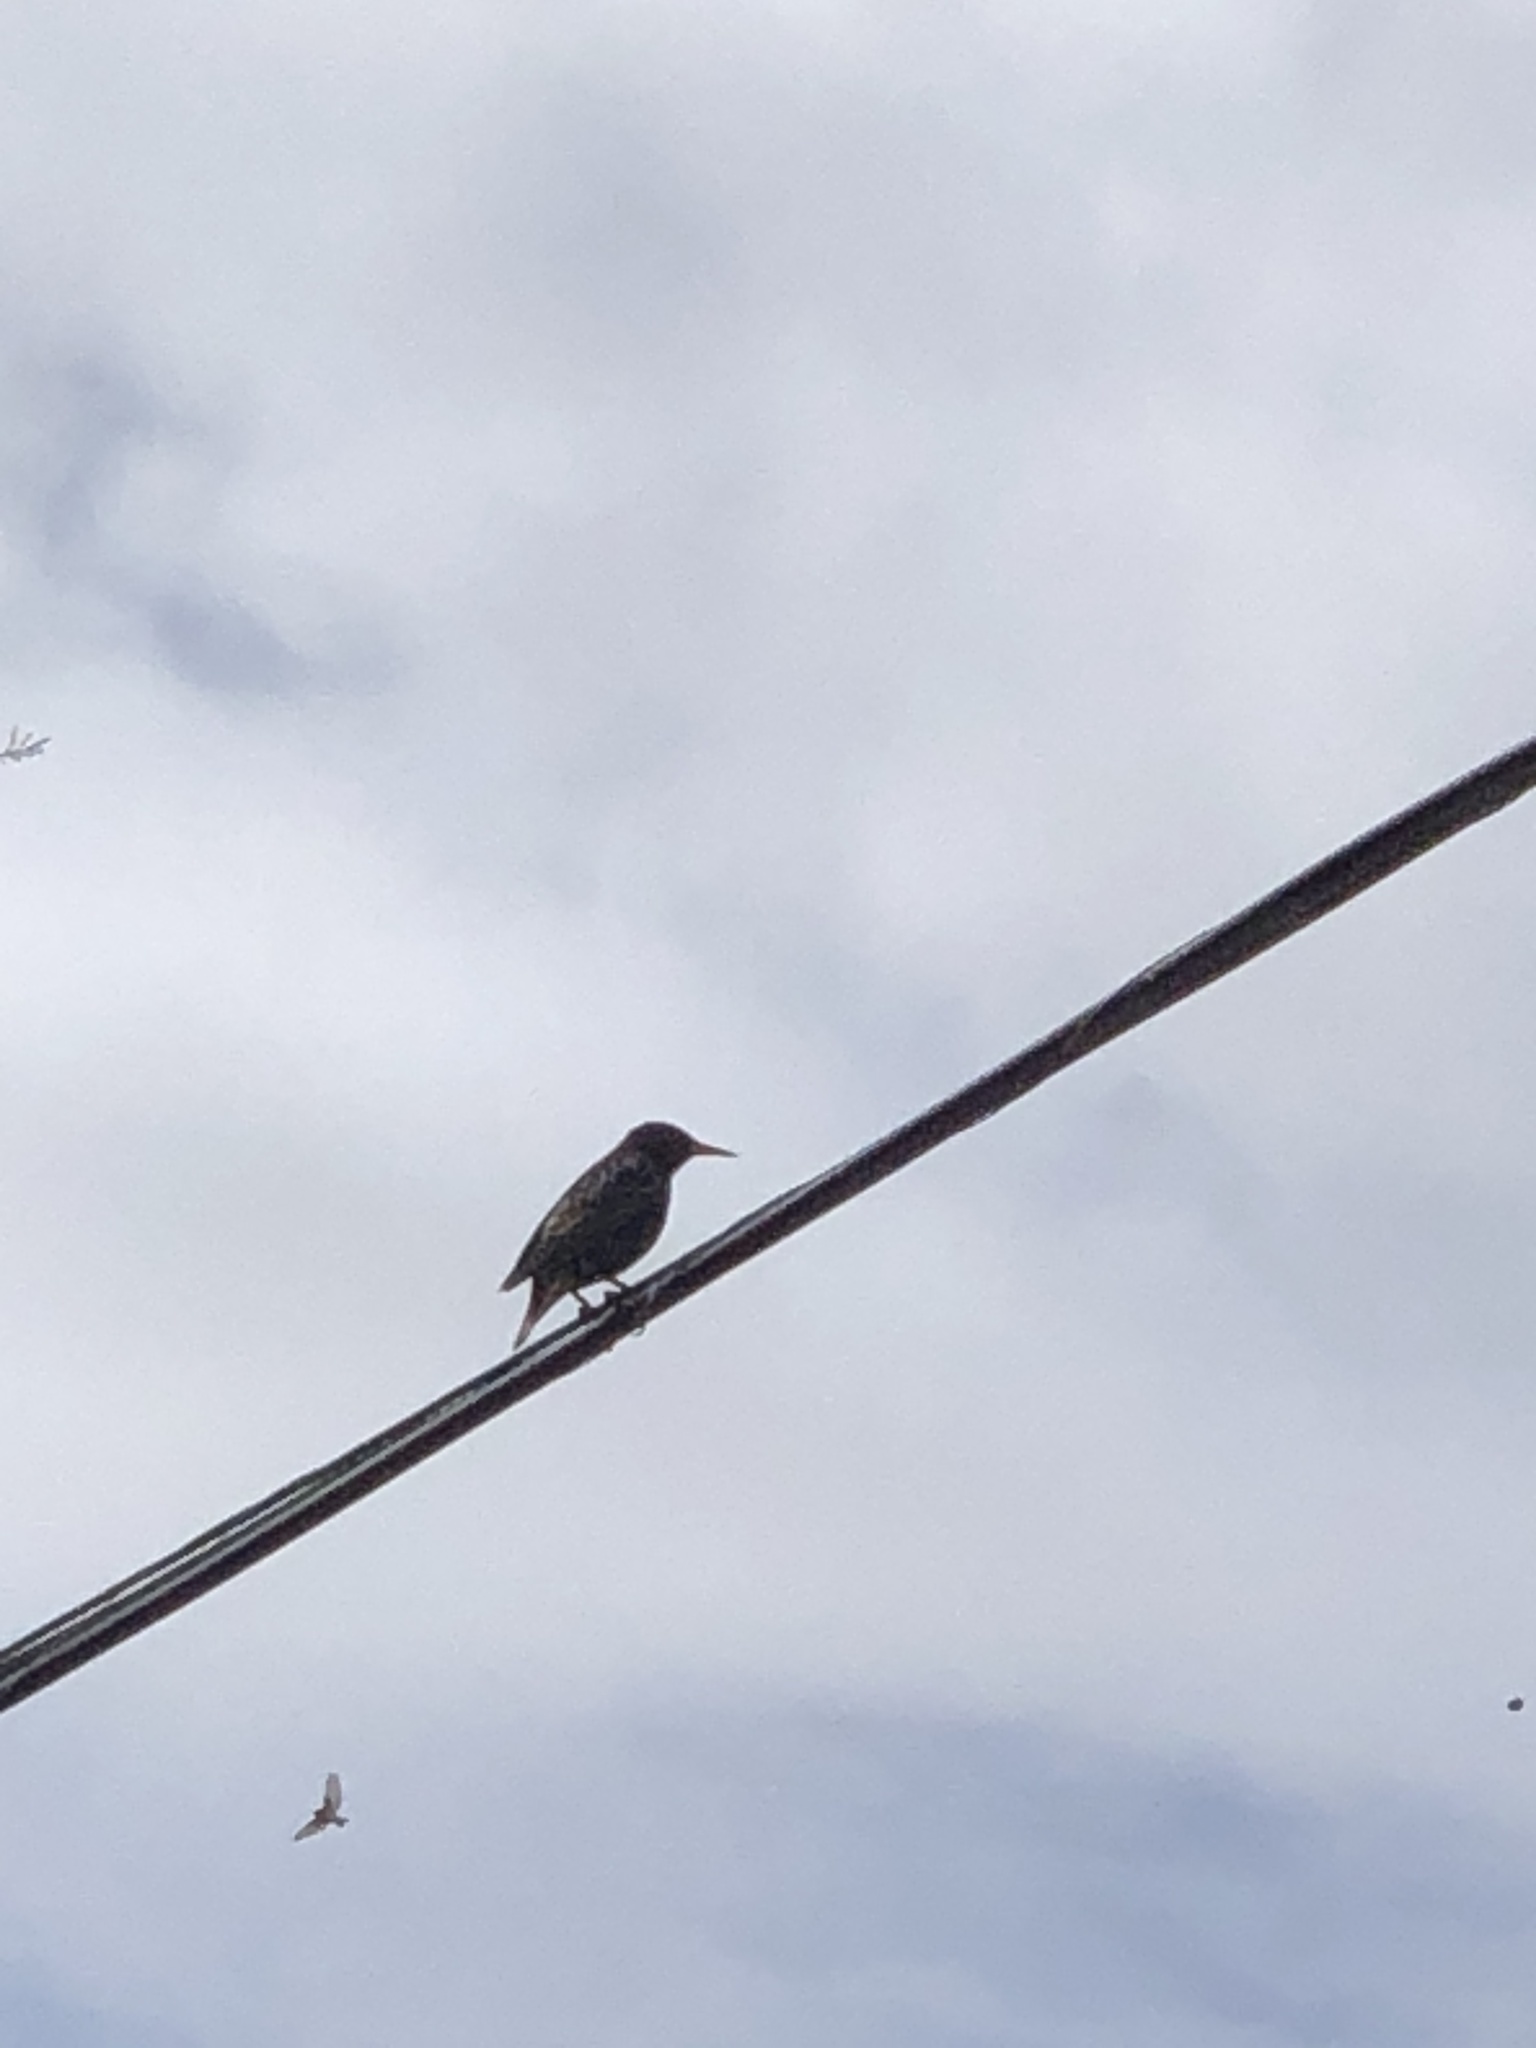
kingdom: Animalia
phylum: Chordata
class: Aves
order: Passeriformes
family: Sturnidae
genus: Sturnus
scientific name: Sturnus vulgaris
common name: Common starling
